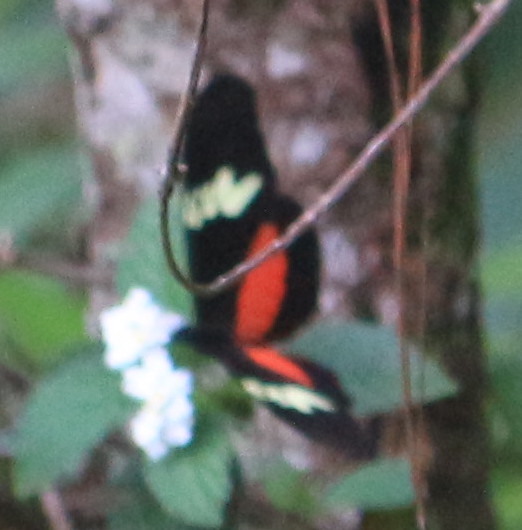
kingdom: Animalia
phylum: Arthropoda
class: Insecta
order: Lepidoptera
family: Nymphalidae
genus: Heliconius
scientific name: Heliconius hortense
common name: Mexican longwing
